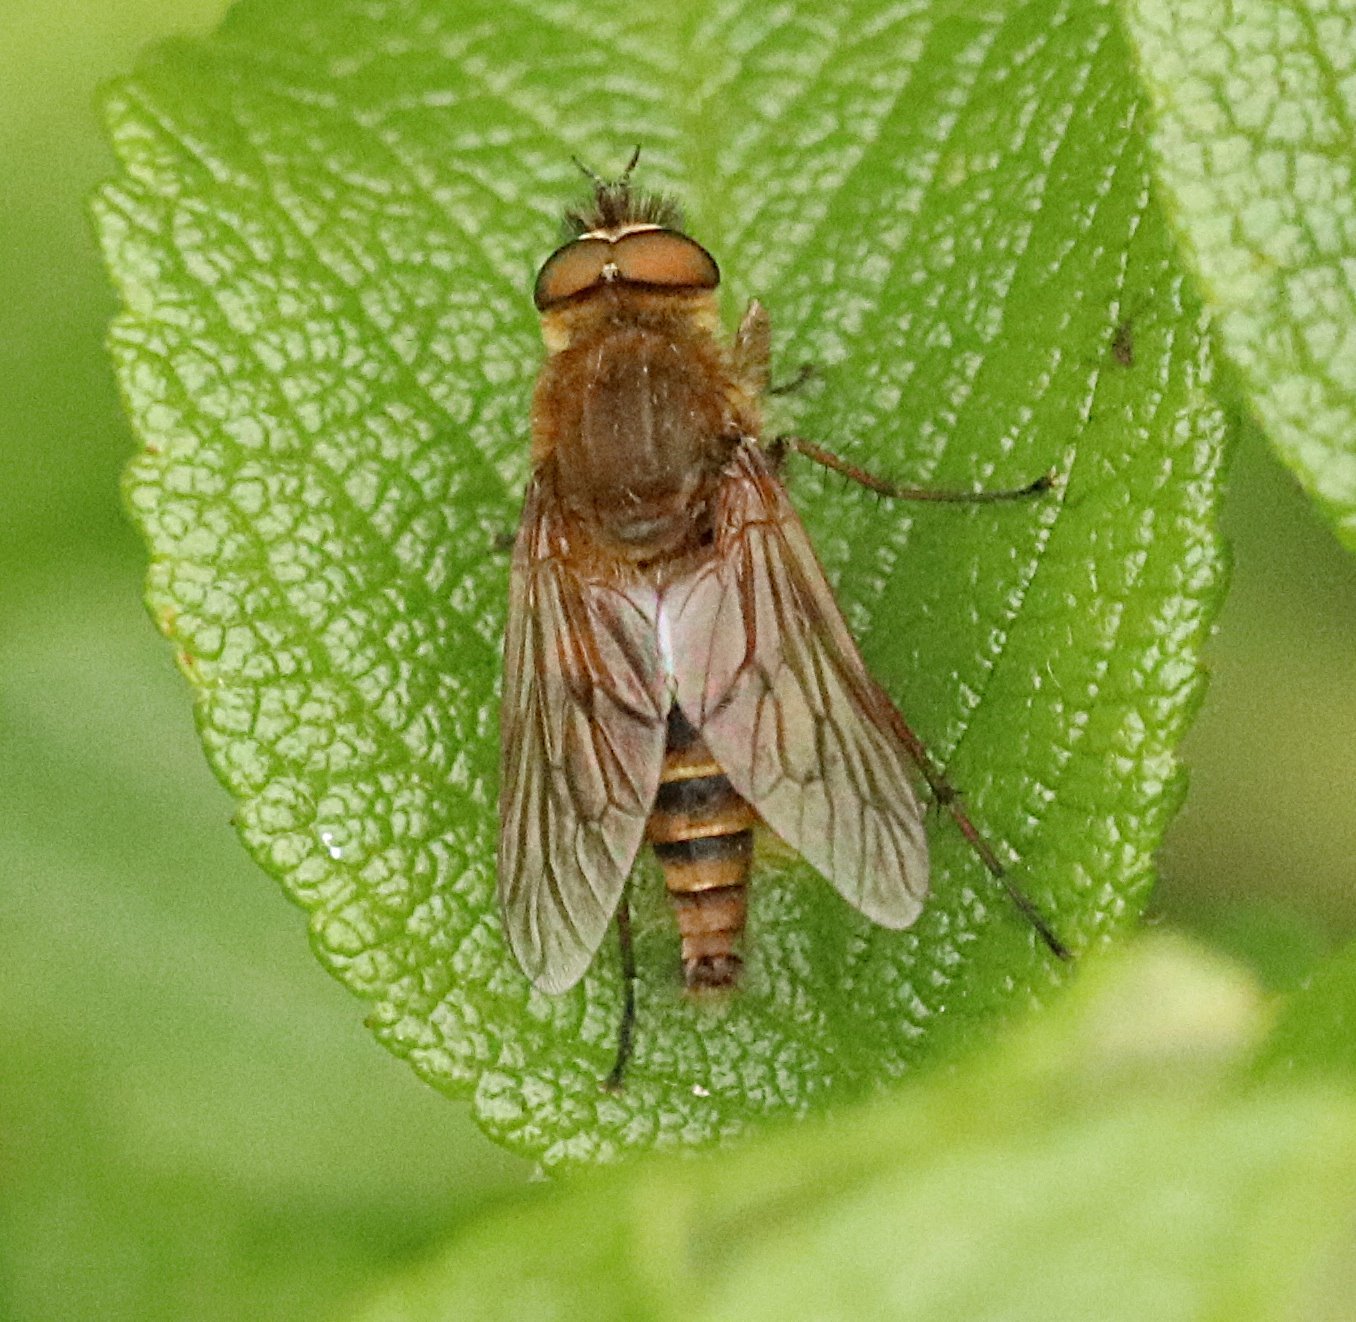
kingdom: Animalia
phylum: Arthropoda
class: Insecta
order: Diptera
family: Therevidae
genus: Thereva
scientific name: Thereva handlirschi
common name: Golden scottish stiletto
